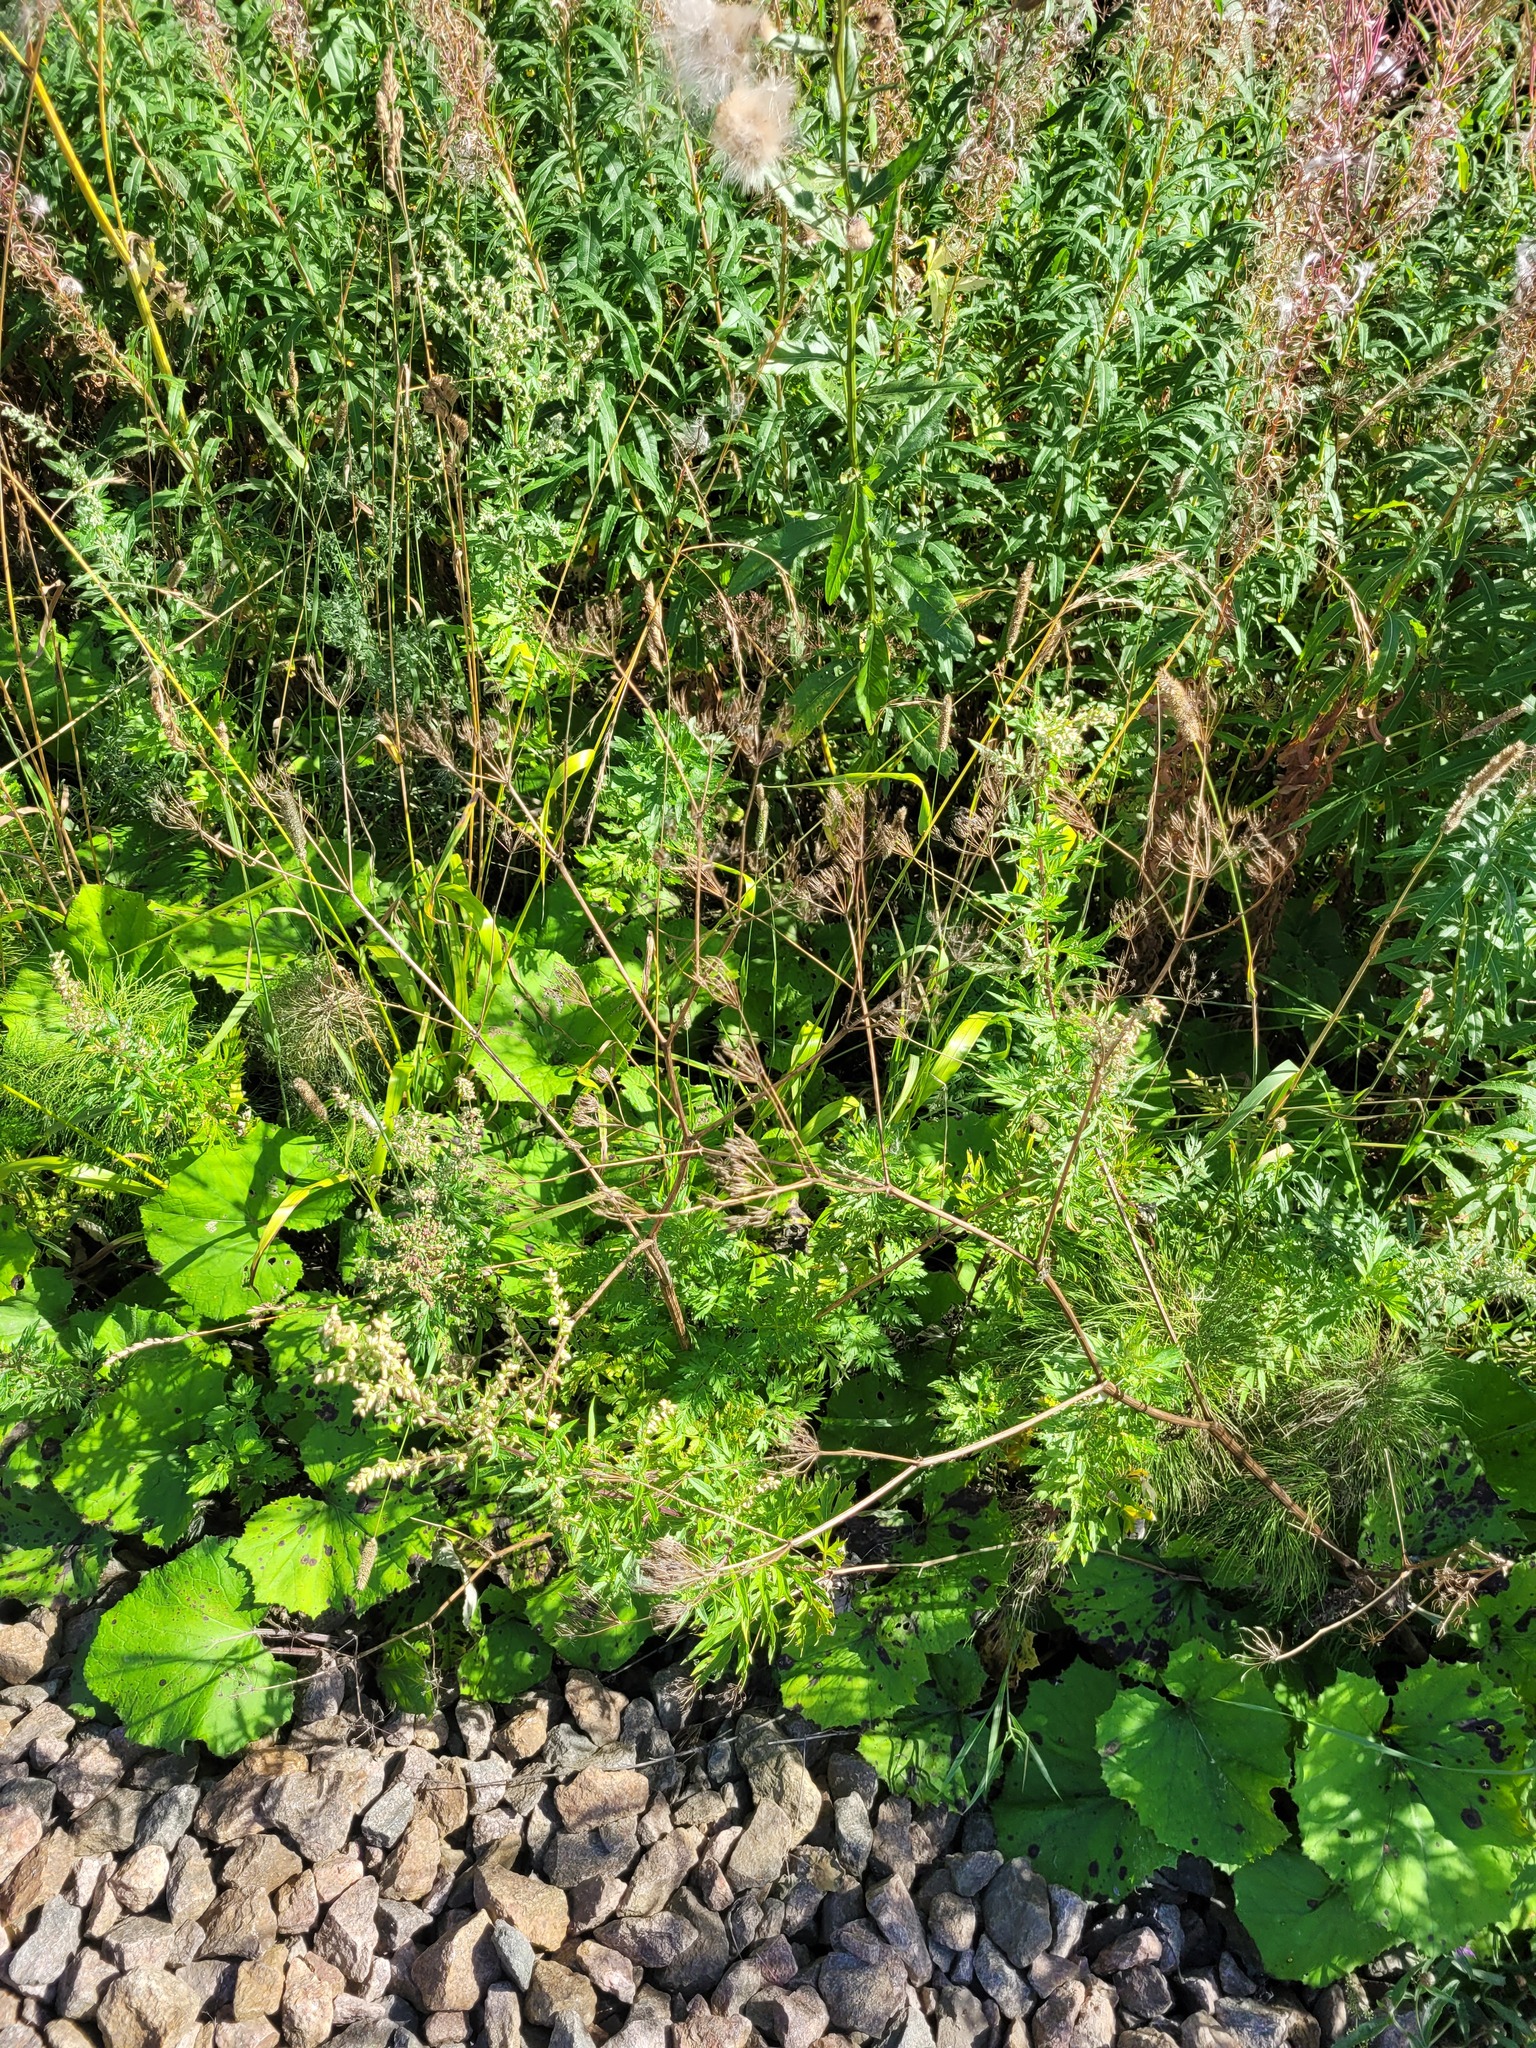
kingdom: Plantae
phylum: Tracheophyta
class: Magnoliopsida
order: Apiales
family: Apiaceae
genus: Anthriscus
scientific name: Anthriscus sylvestris
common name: Cow parsley
